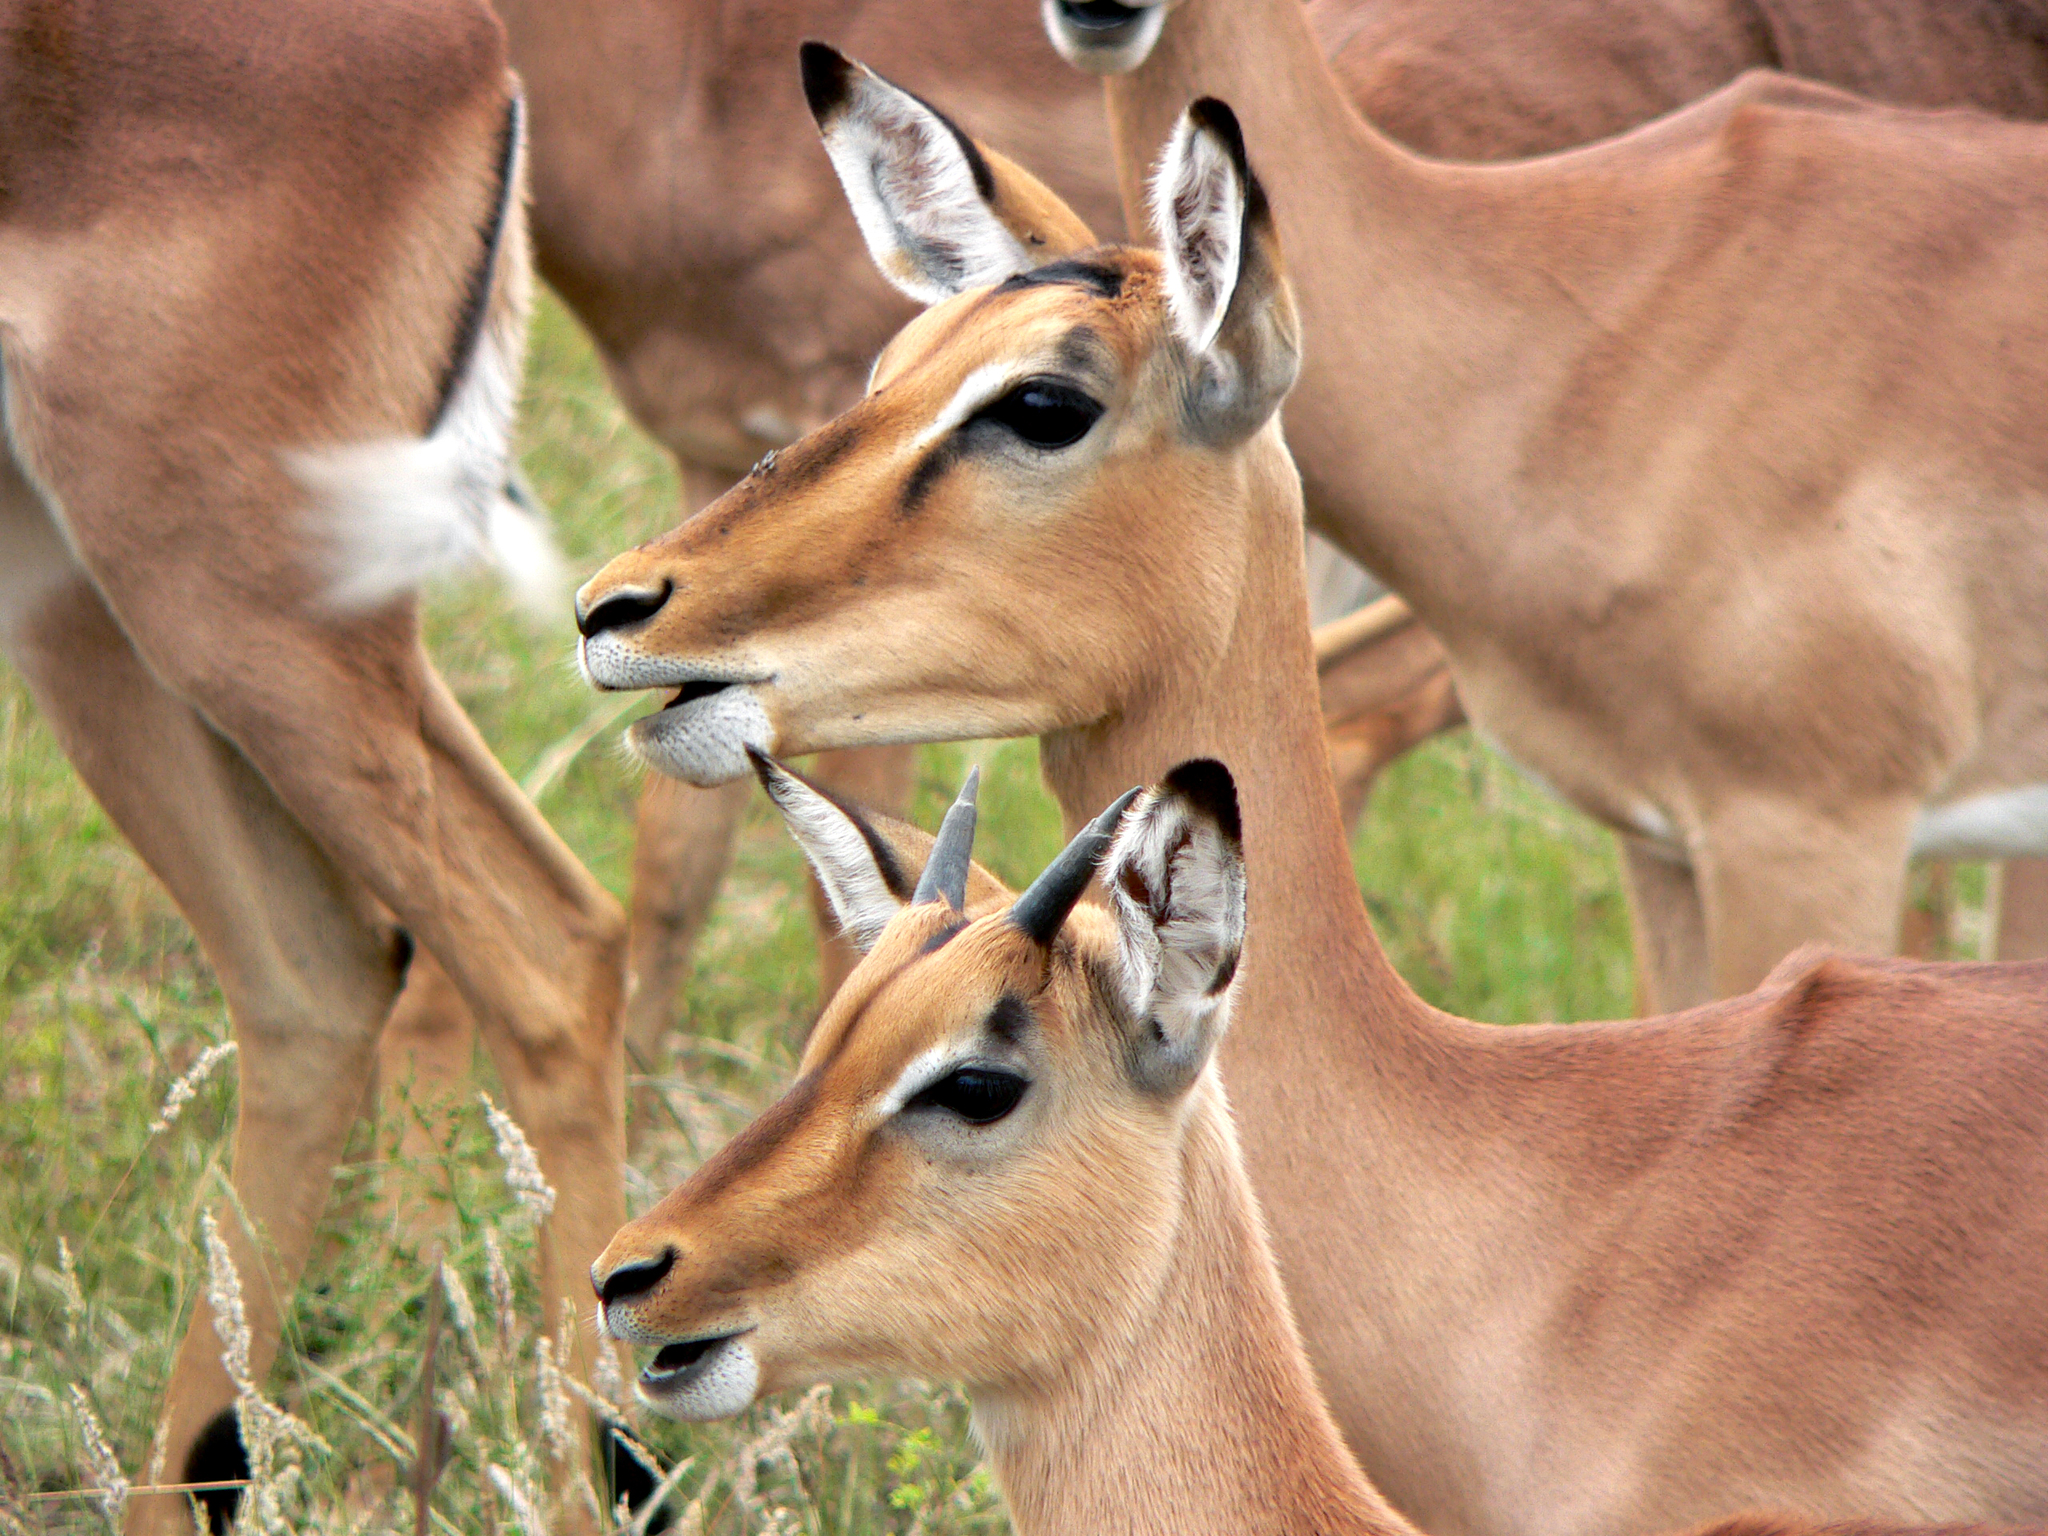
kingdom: Animalia
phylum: Chordata
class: Mammalia
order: Artiodactyla
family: Bovidae
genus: Aepyceros
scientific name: Aepyceros melampus
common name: Impala
